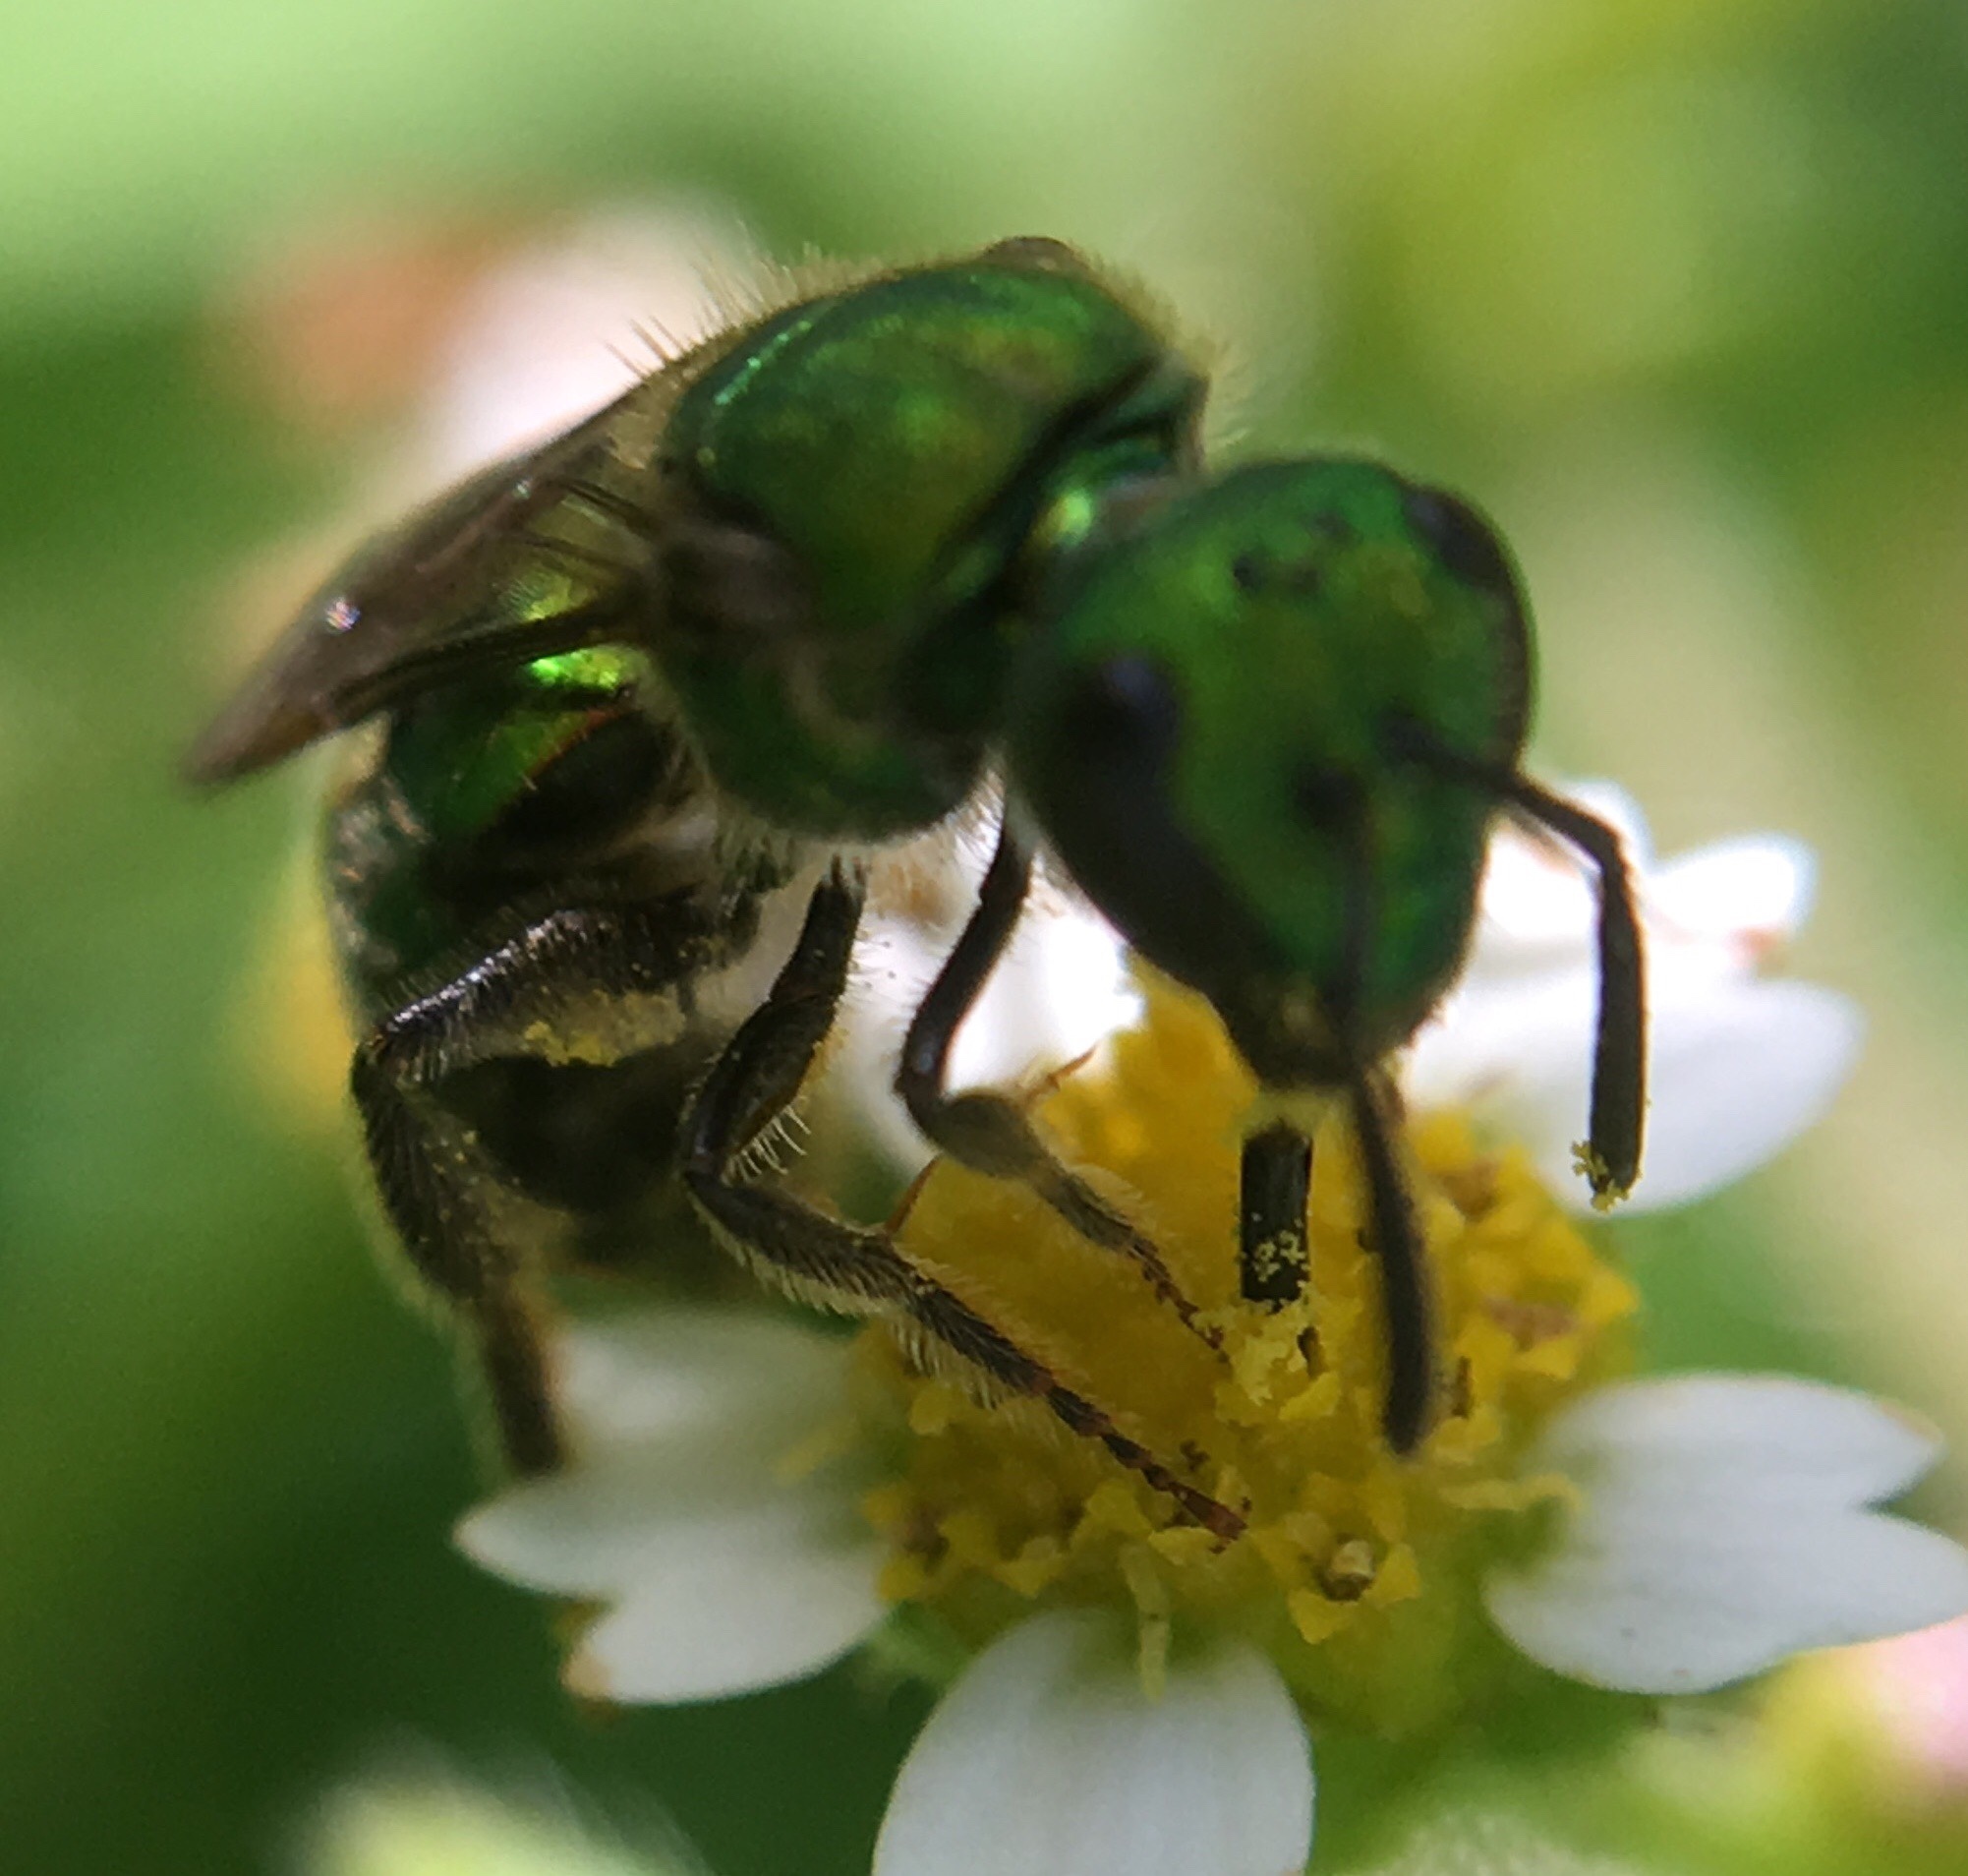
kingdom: Animalia
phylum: Arthropoda
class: Insecta
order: Hymenoptera
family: Halictidae
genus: Augochlora
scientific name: Augochlora pura
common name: Pure green sweat bee
